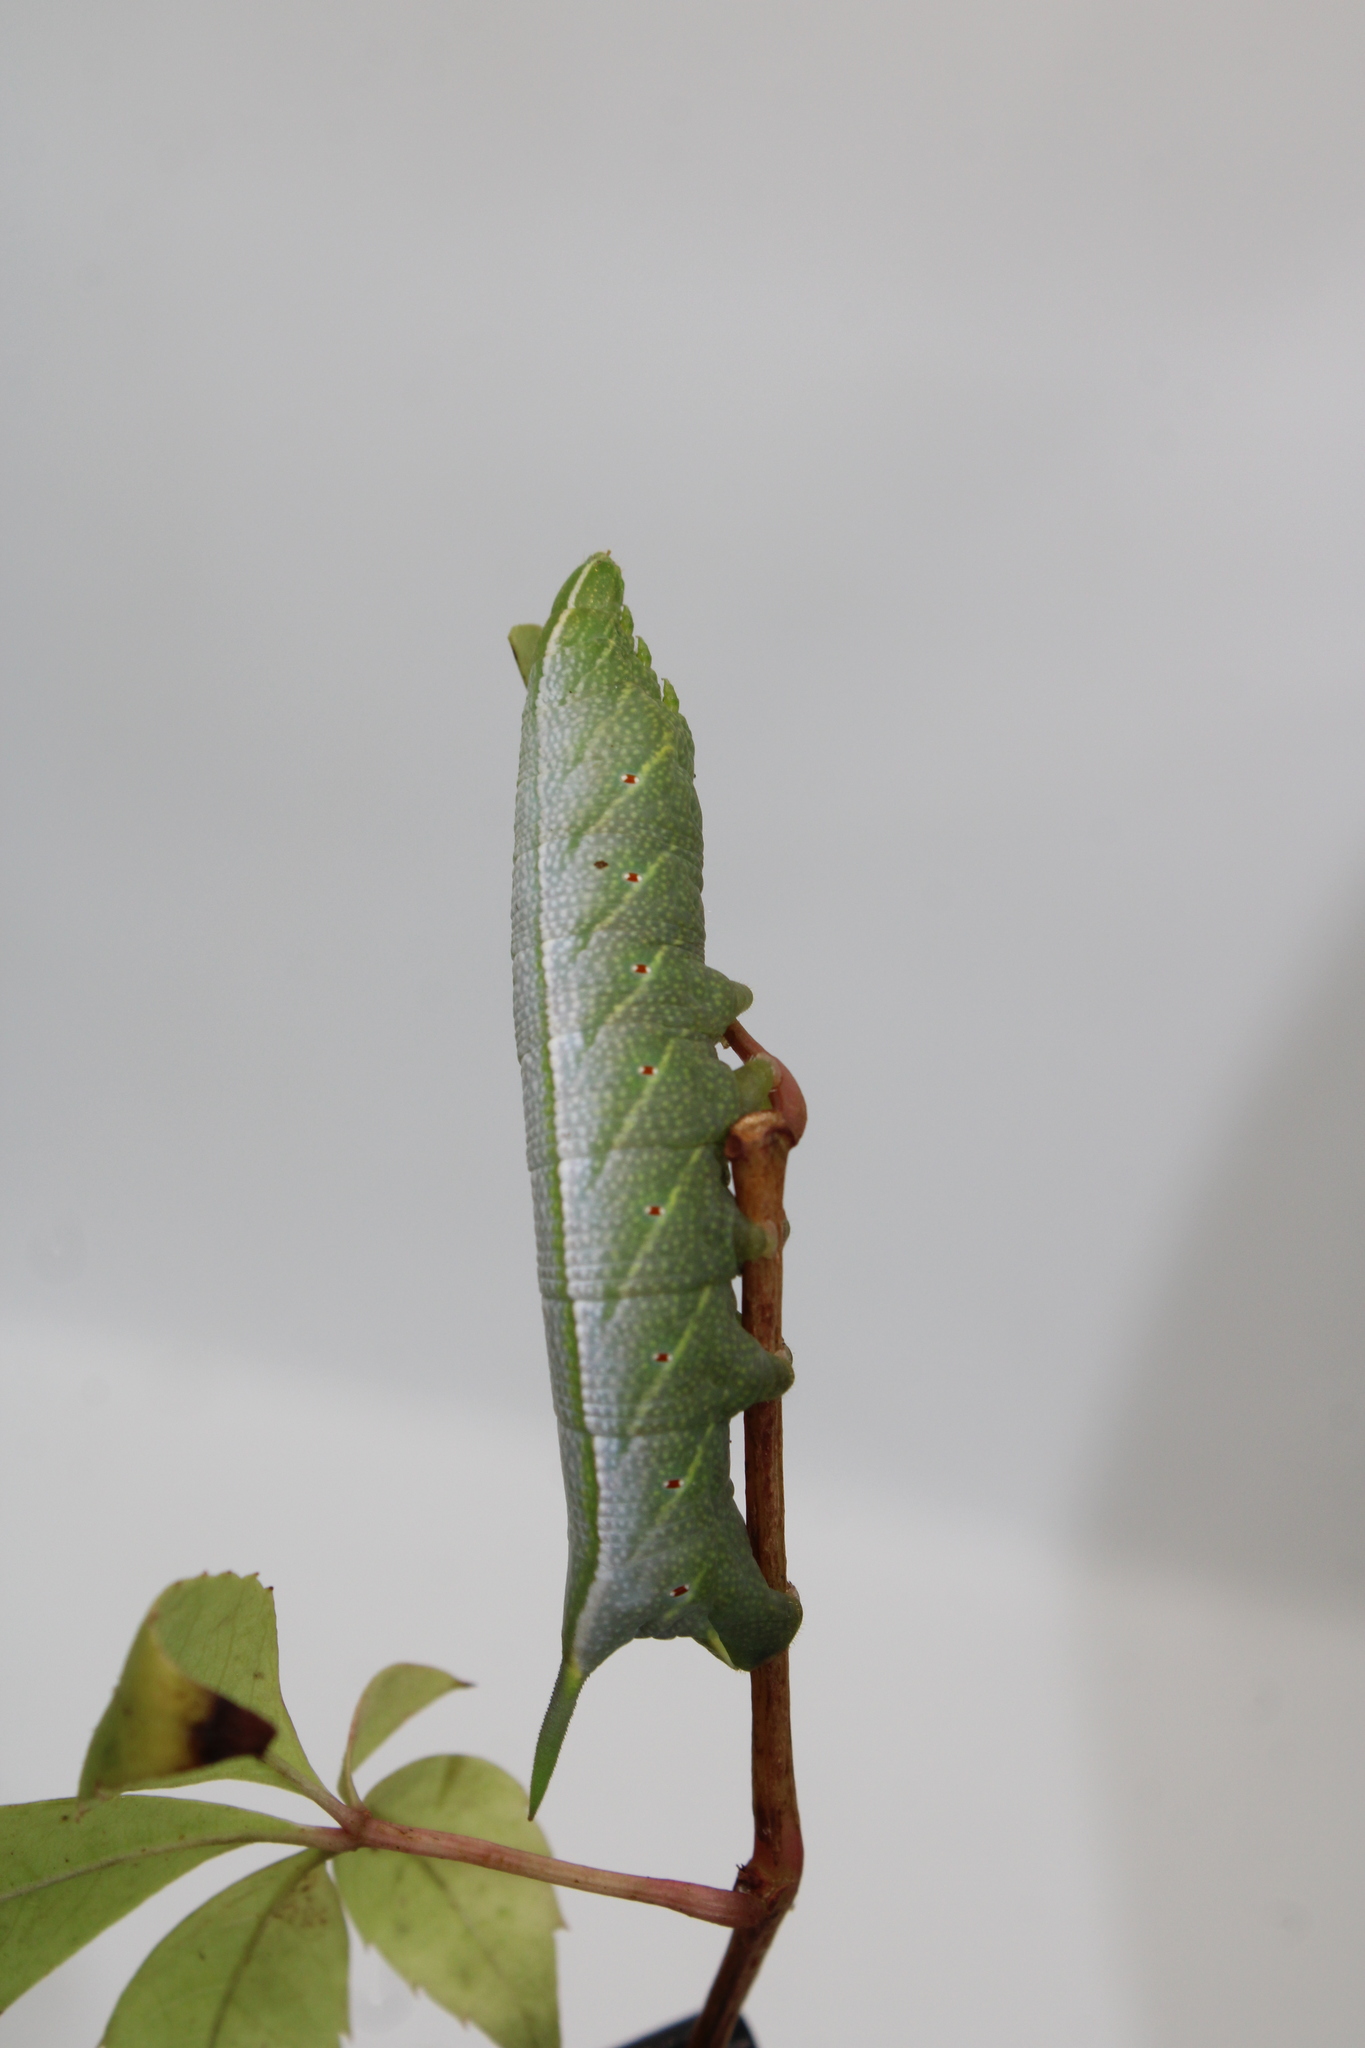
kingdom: Animalia
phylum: Arthropoda
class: Insecta
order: Lepidoptera
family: Sphingidae
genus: Enyo
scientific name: Enyo lugubris
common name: Mournful sphinx
